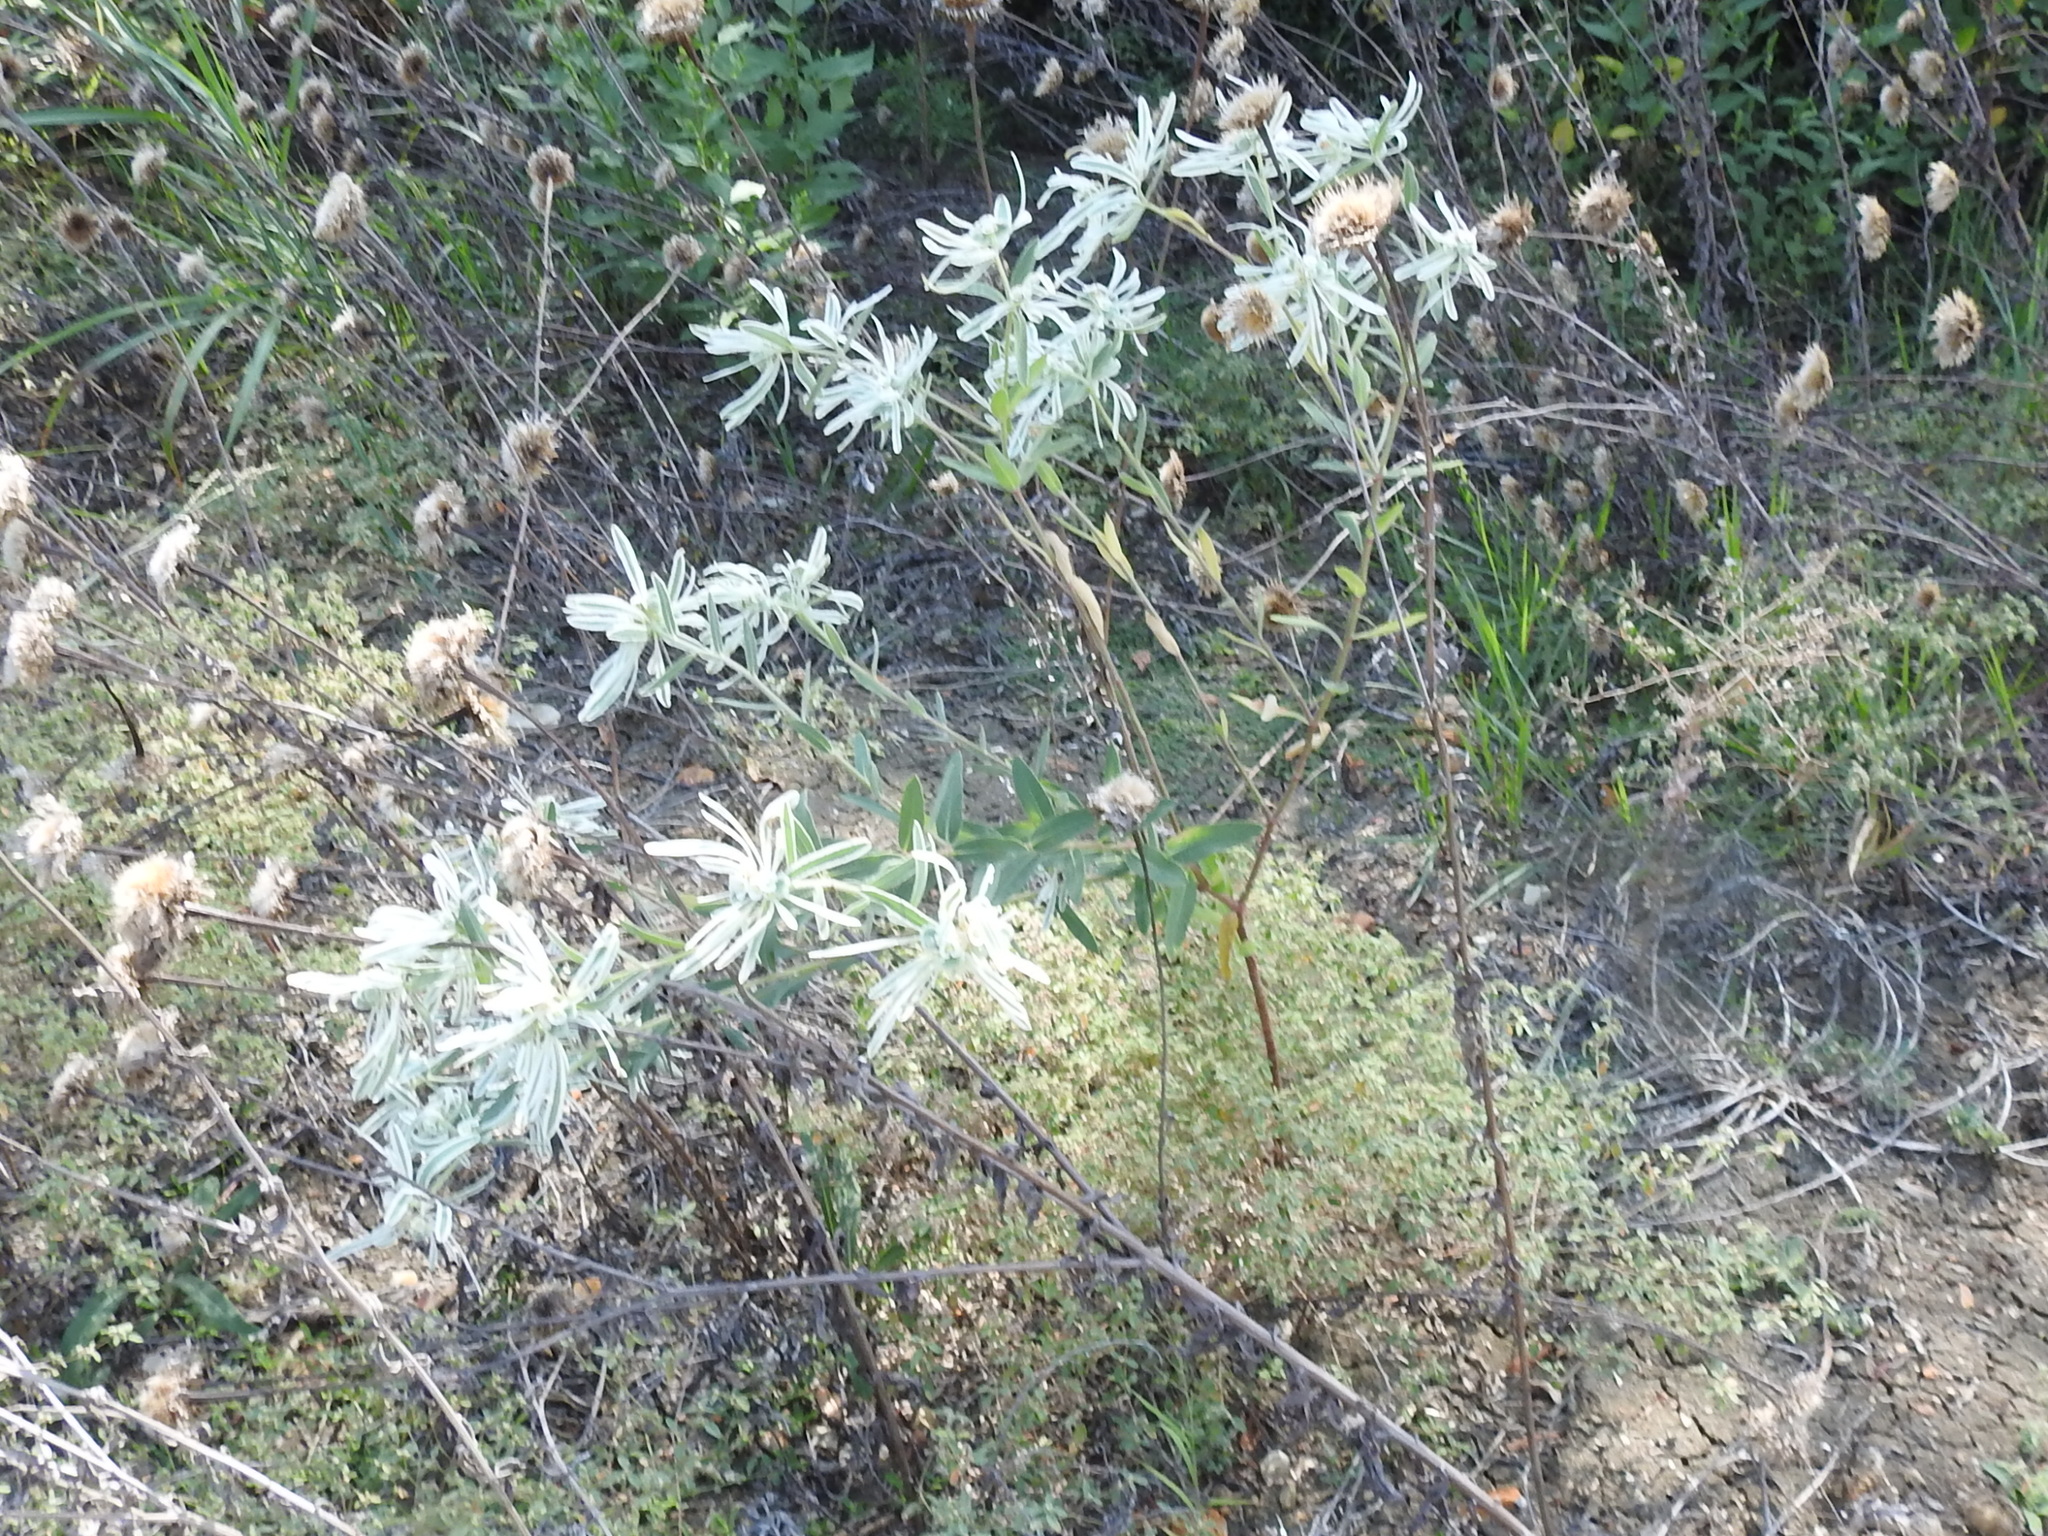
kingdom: Plantae
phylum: Tracheophyta
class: Magnoliopsida
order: Malpighiales
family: Euphorbiaceae
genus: Euphorbia
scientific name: Euphorbia bicolor
